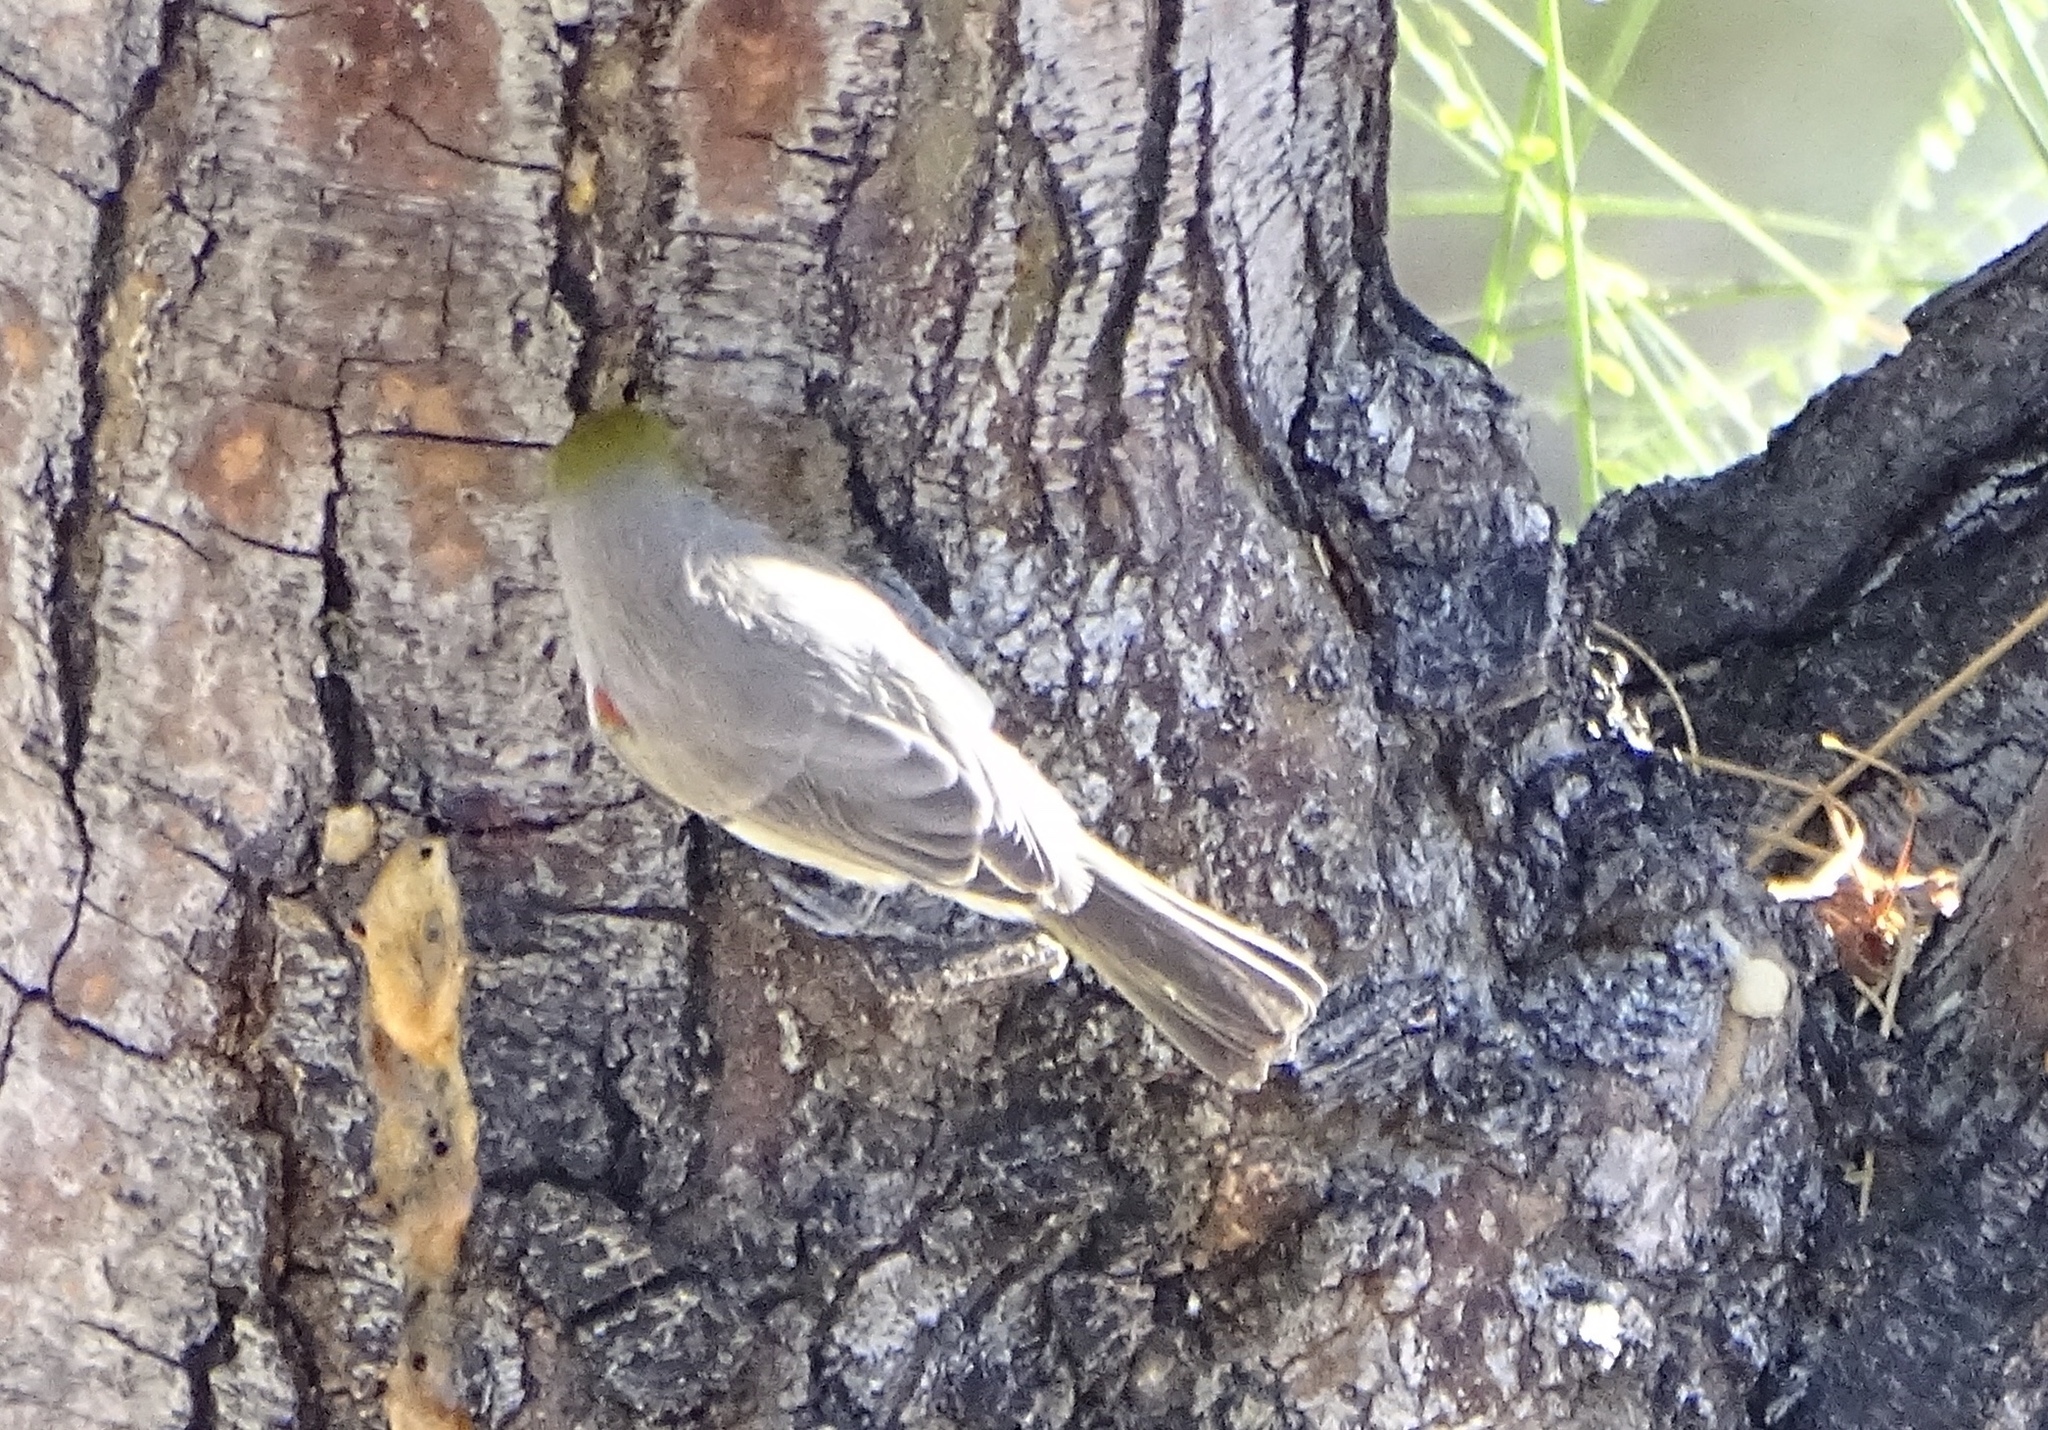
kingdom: Animalia
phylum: Chordata
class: Aves
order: Passeriformes
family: Remizidae
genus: Auriparus
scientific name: Auriparus flaviceps
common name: Verdin
